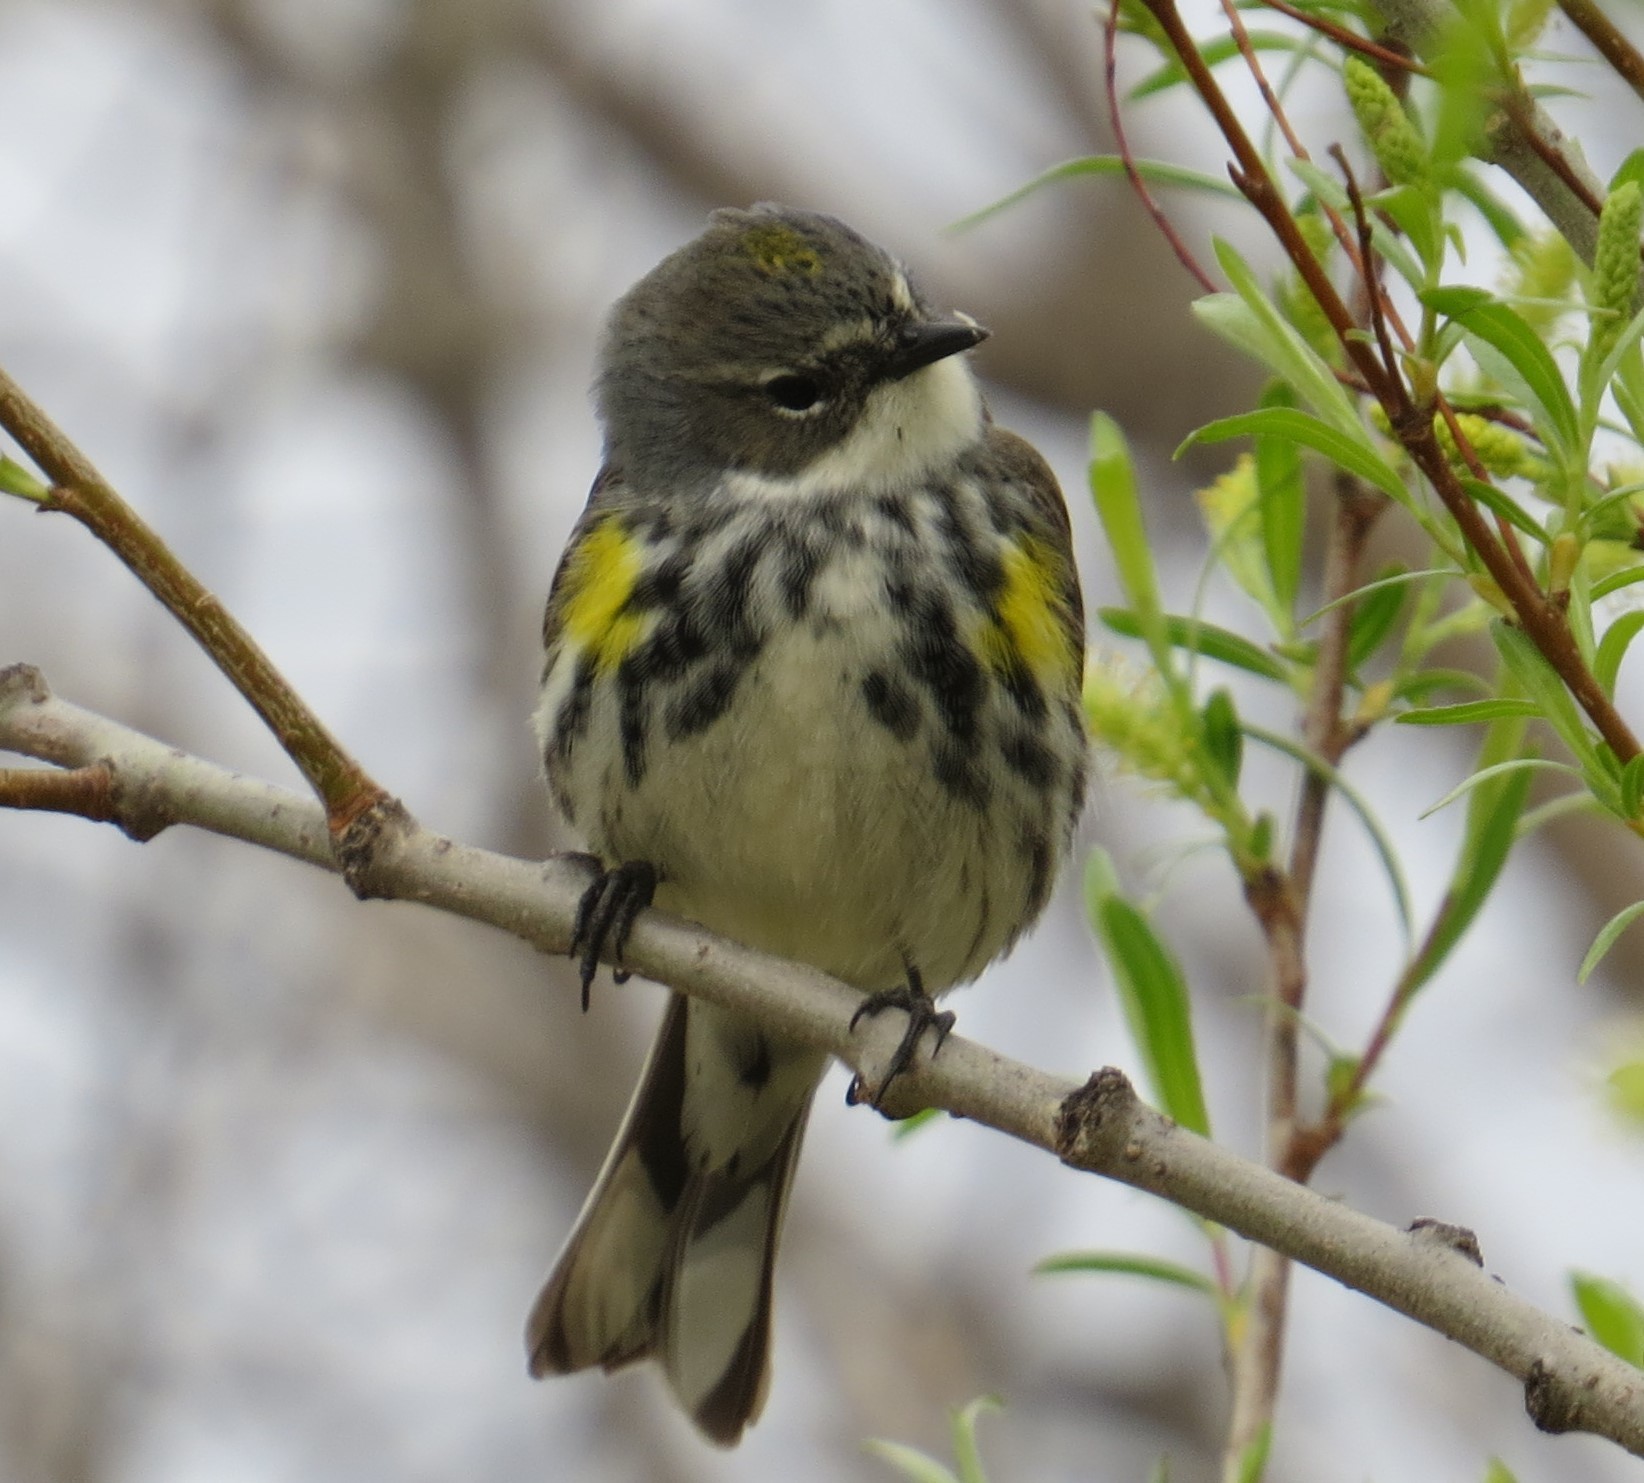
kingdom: Animalia
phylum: Chordata
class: Aves
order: Passeriformes
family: Parulidae
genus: Setophaga
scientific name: Setophaga coronata
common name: Myrtle warbler
